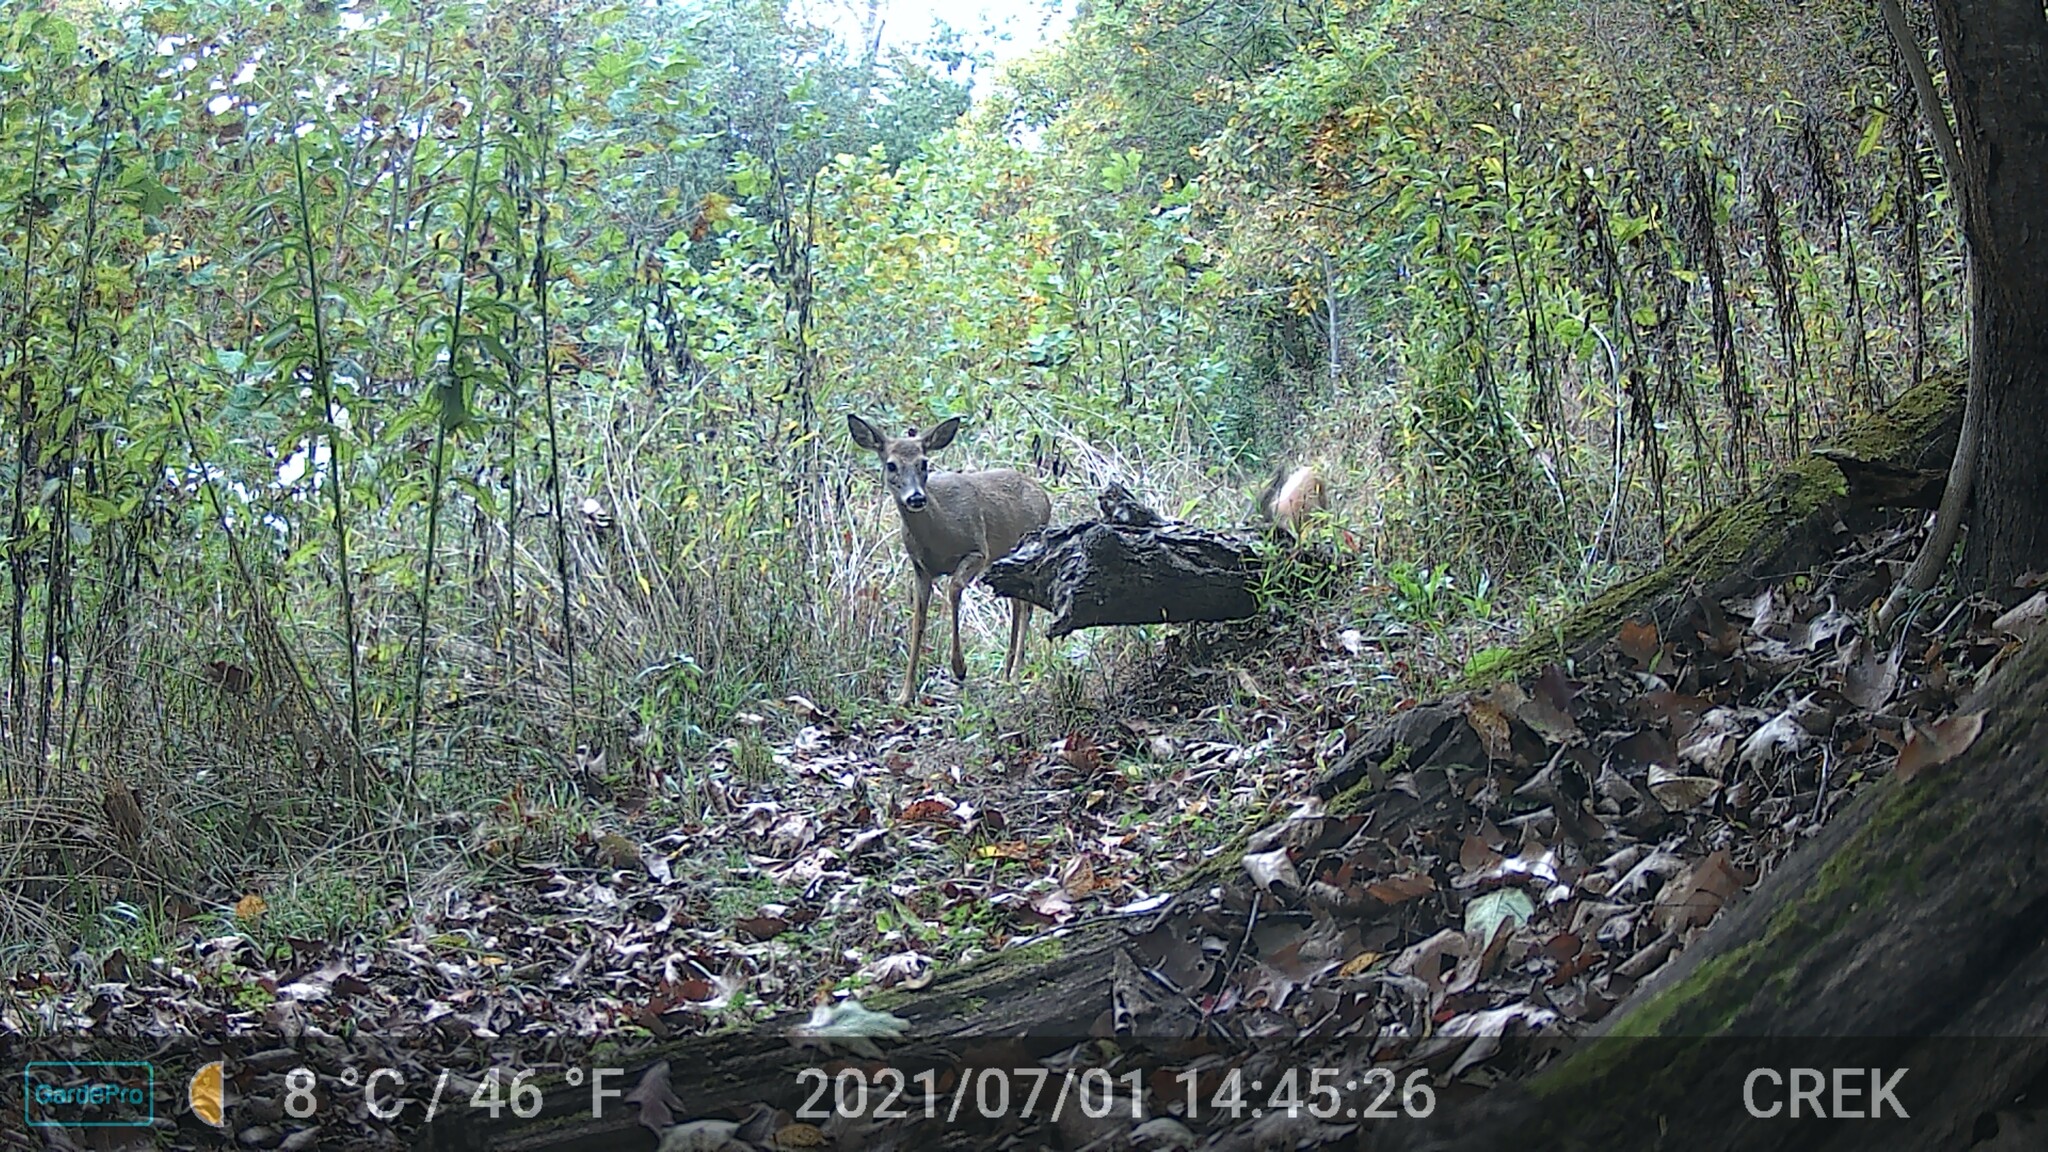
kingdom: Animalia
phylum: Chordata
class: Mammalia
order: Artiodactyla
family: Cervidae
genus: Odocoileus
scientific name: Odocoileus virginianus
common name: White-tailed deer
